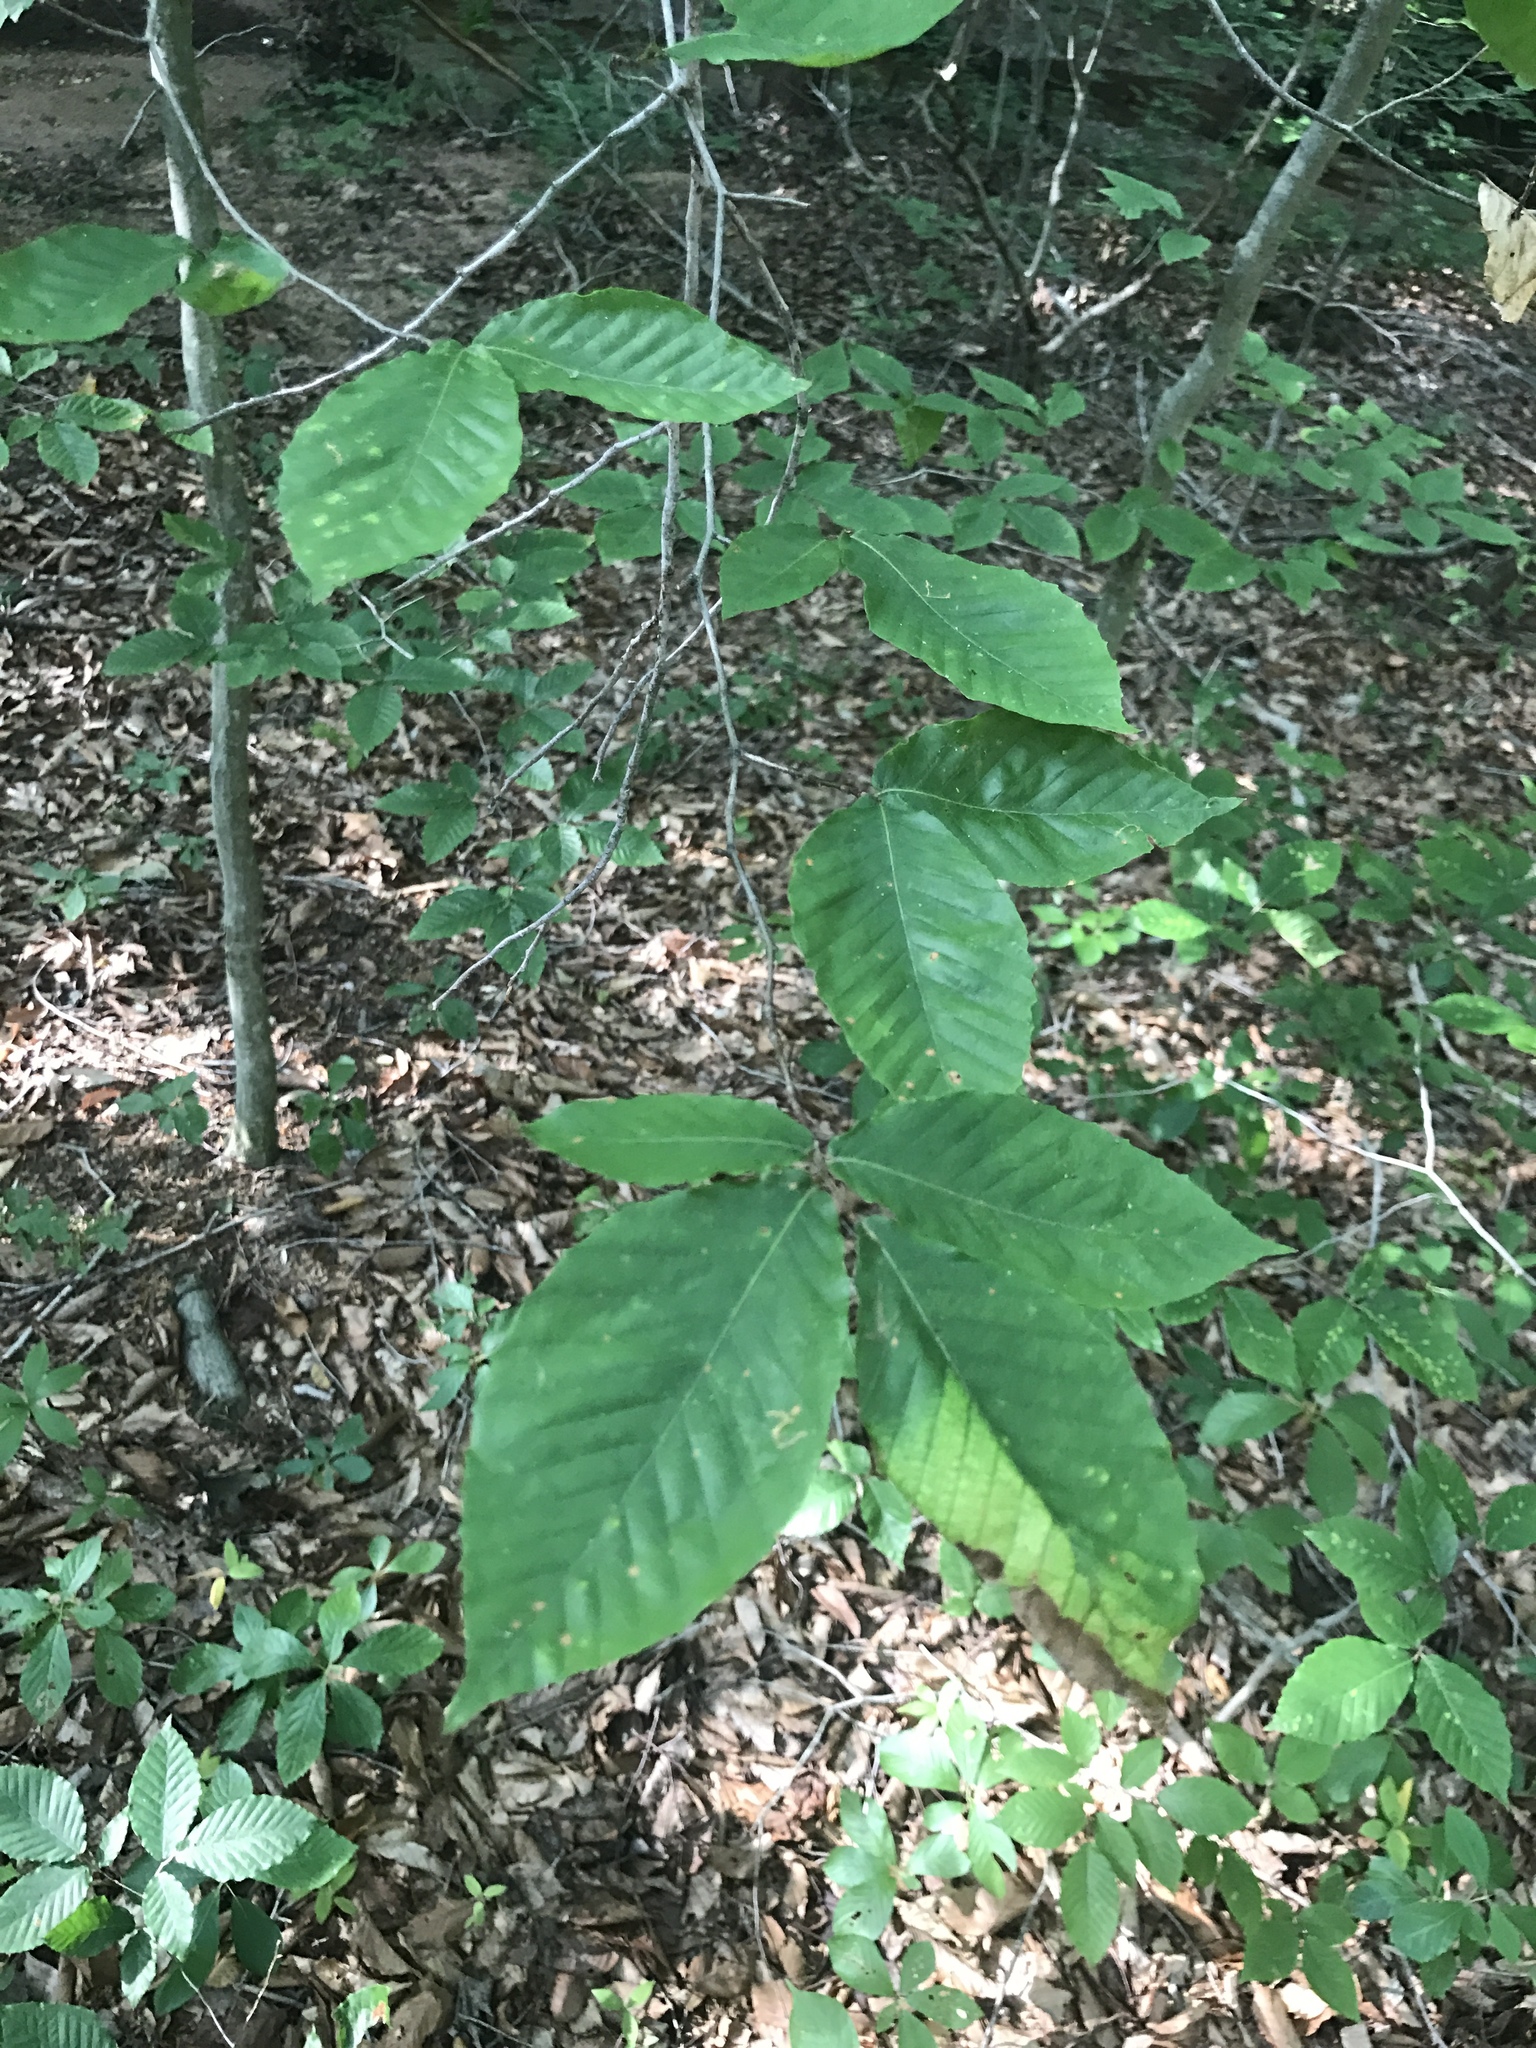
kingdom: Plantae
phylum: Tracheophyta
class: Magnoliopsida
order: Fagales
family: Fagaceae
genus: Fagus
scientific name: Fagus grandifolia
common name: American beech
